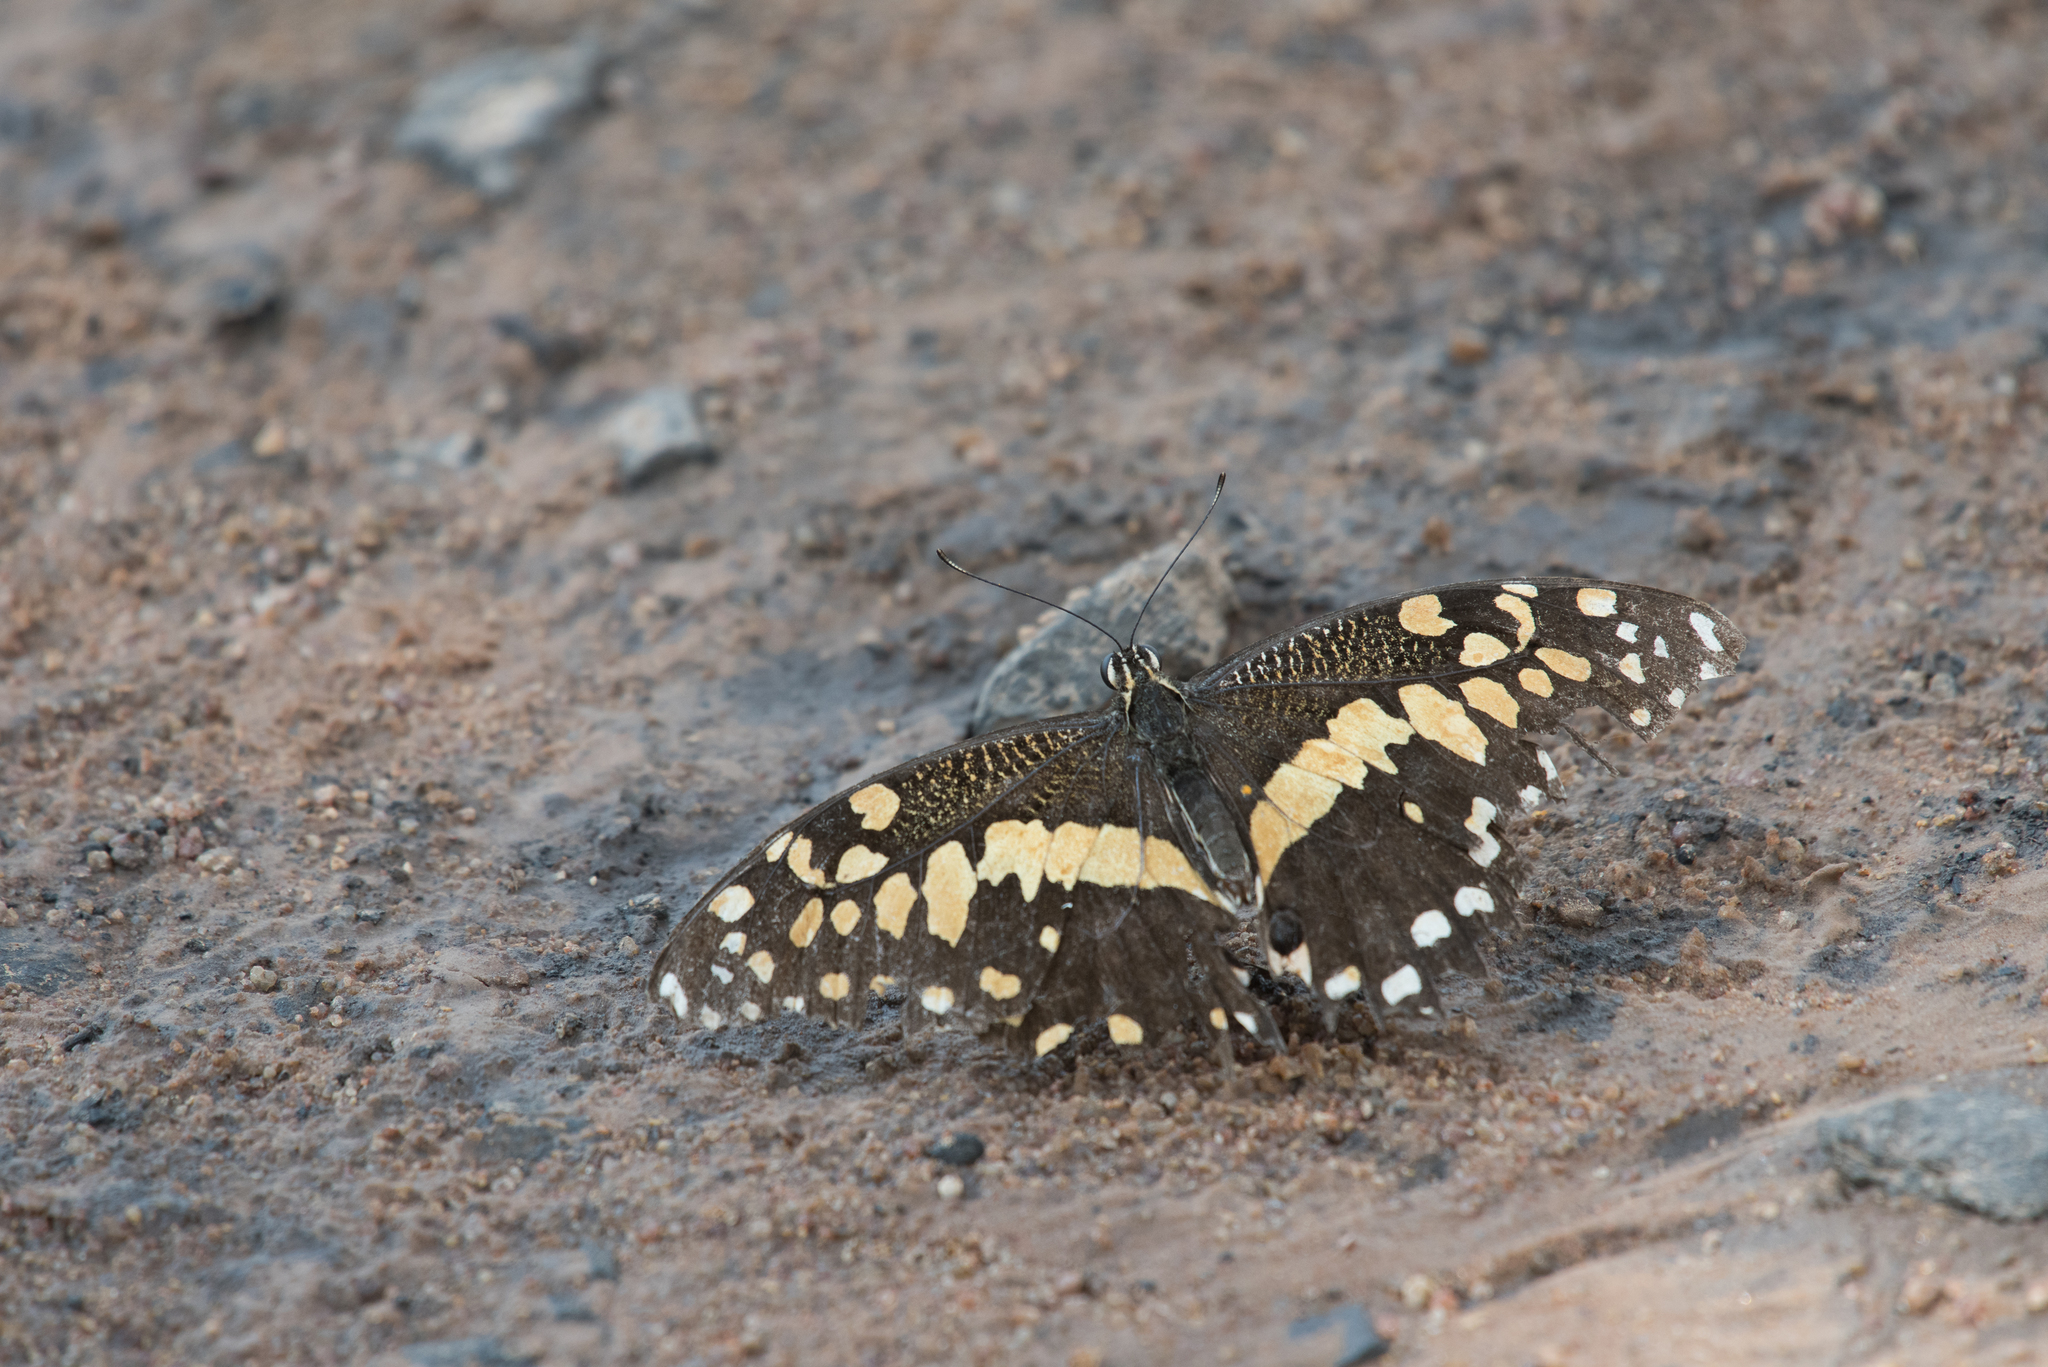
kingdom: Animalia
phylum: Arthropoda
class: Insecta
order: Lepidoptera
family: Papilionidae
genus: Papilio
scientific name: Papilio demodocus
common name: Christmas butterfly
